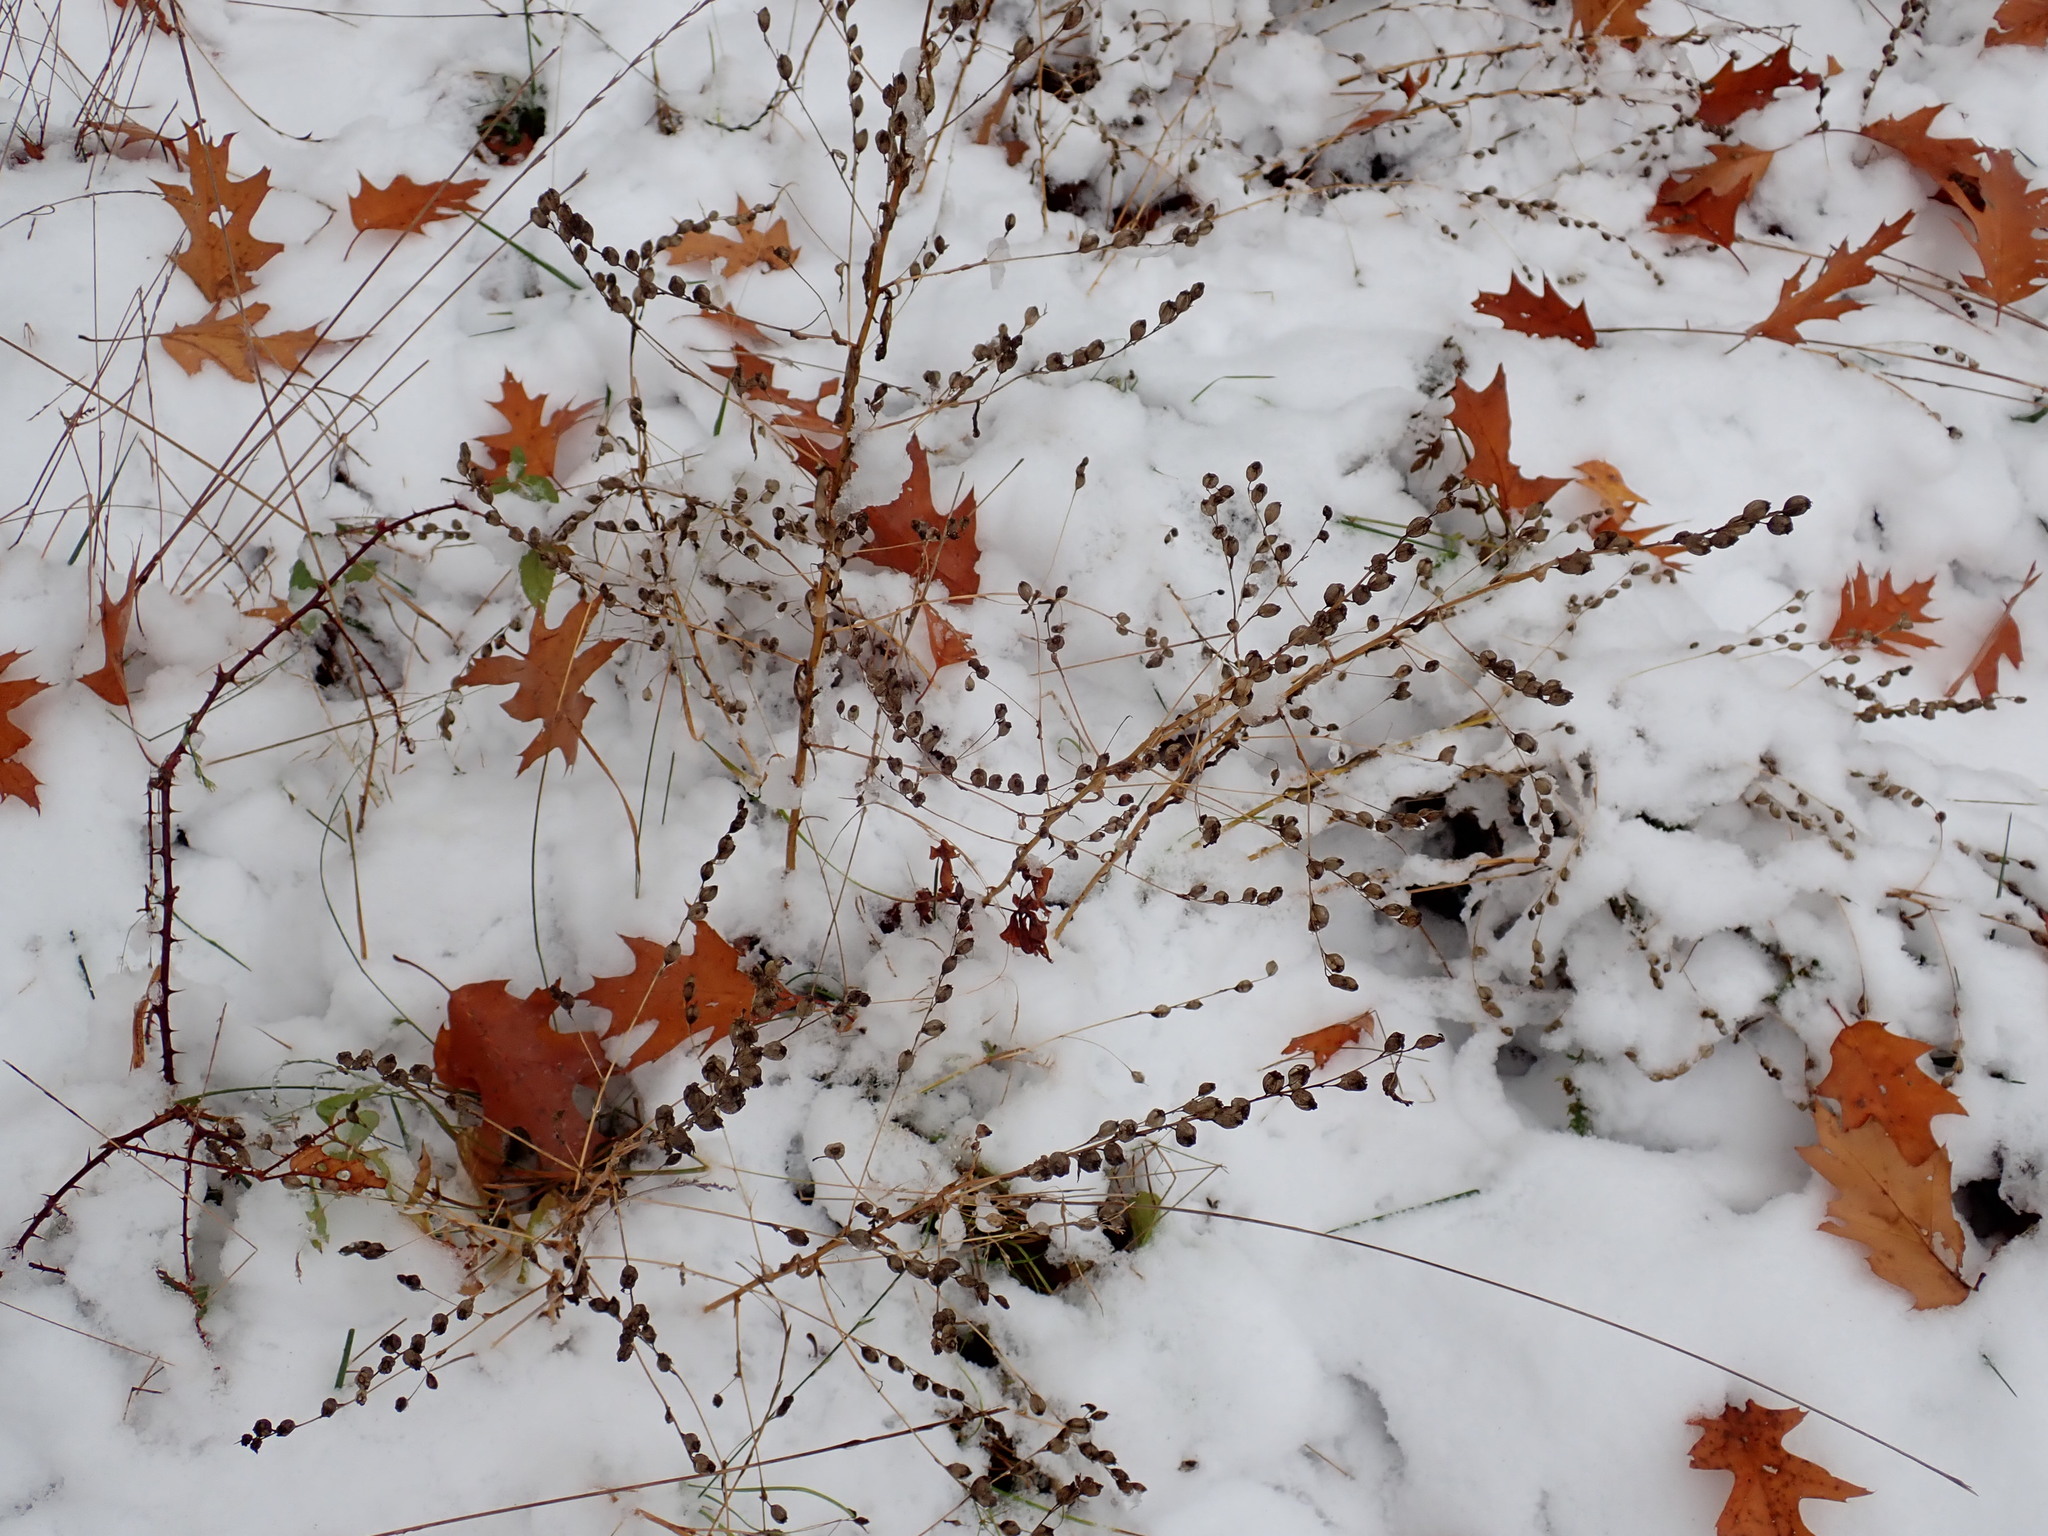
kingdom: Plantae
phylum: Tracheophyta
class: Magnoliopsida
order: Asterales
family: Campanulaceae
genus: Lobelia
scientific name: Lobelia inflata
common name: Indian tobacco
